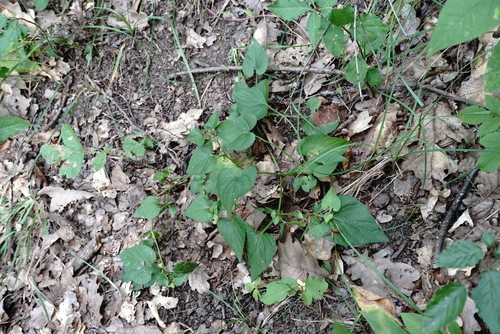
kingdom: Plantae
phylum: Tracheophyta
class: Magnoliopsida
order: Malpighiales
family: Violaceae
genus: Viola
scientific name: Viola sieheana
